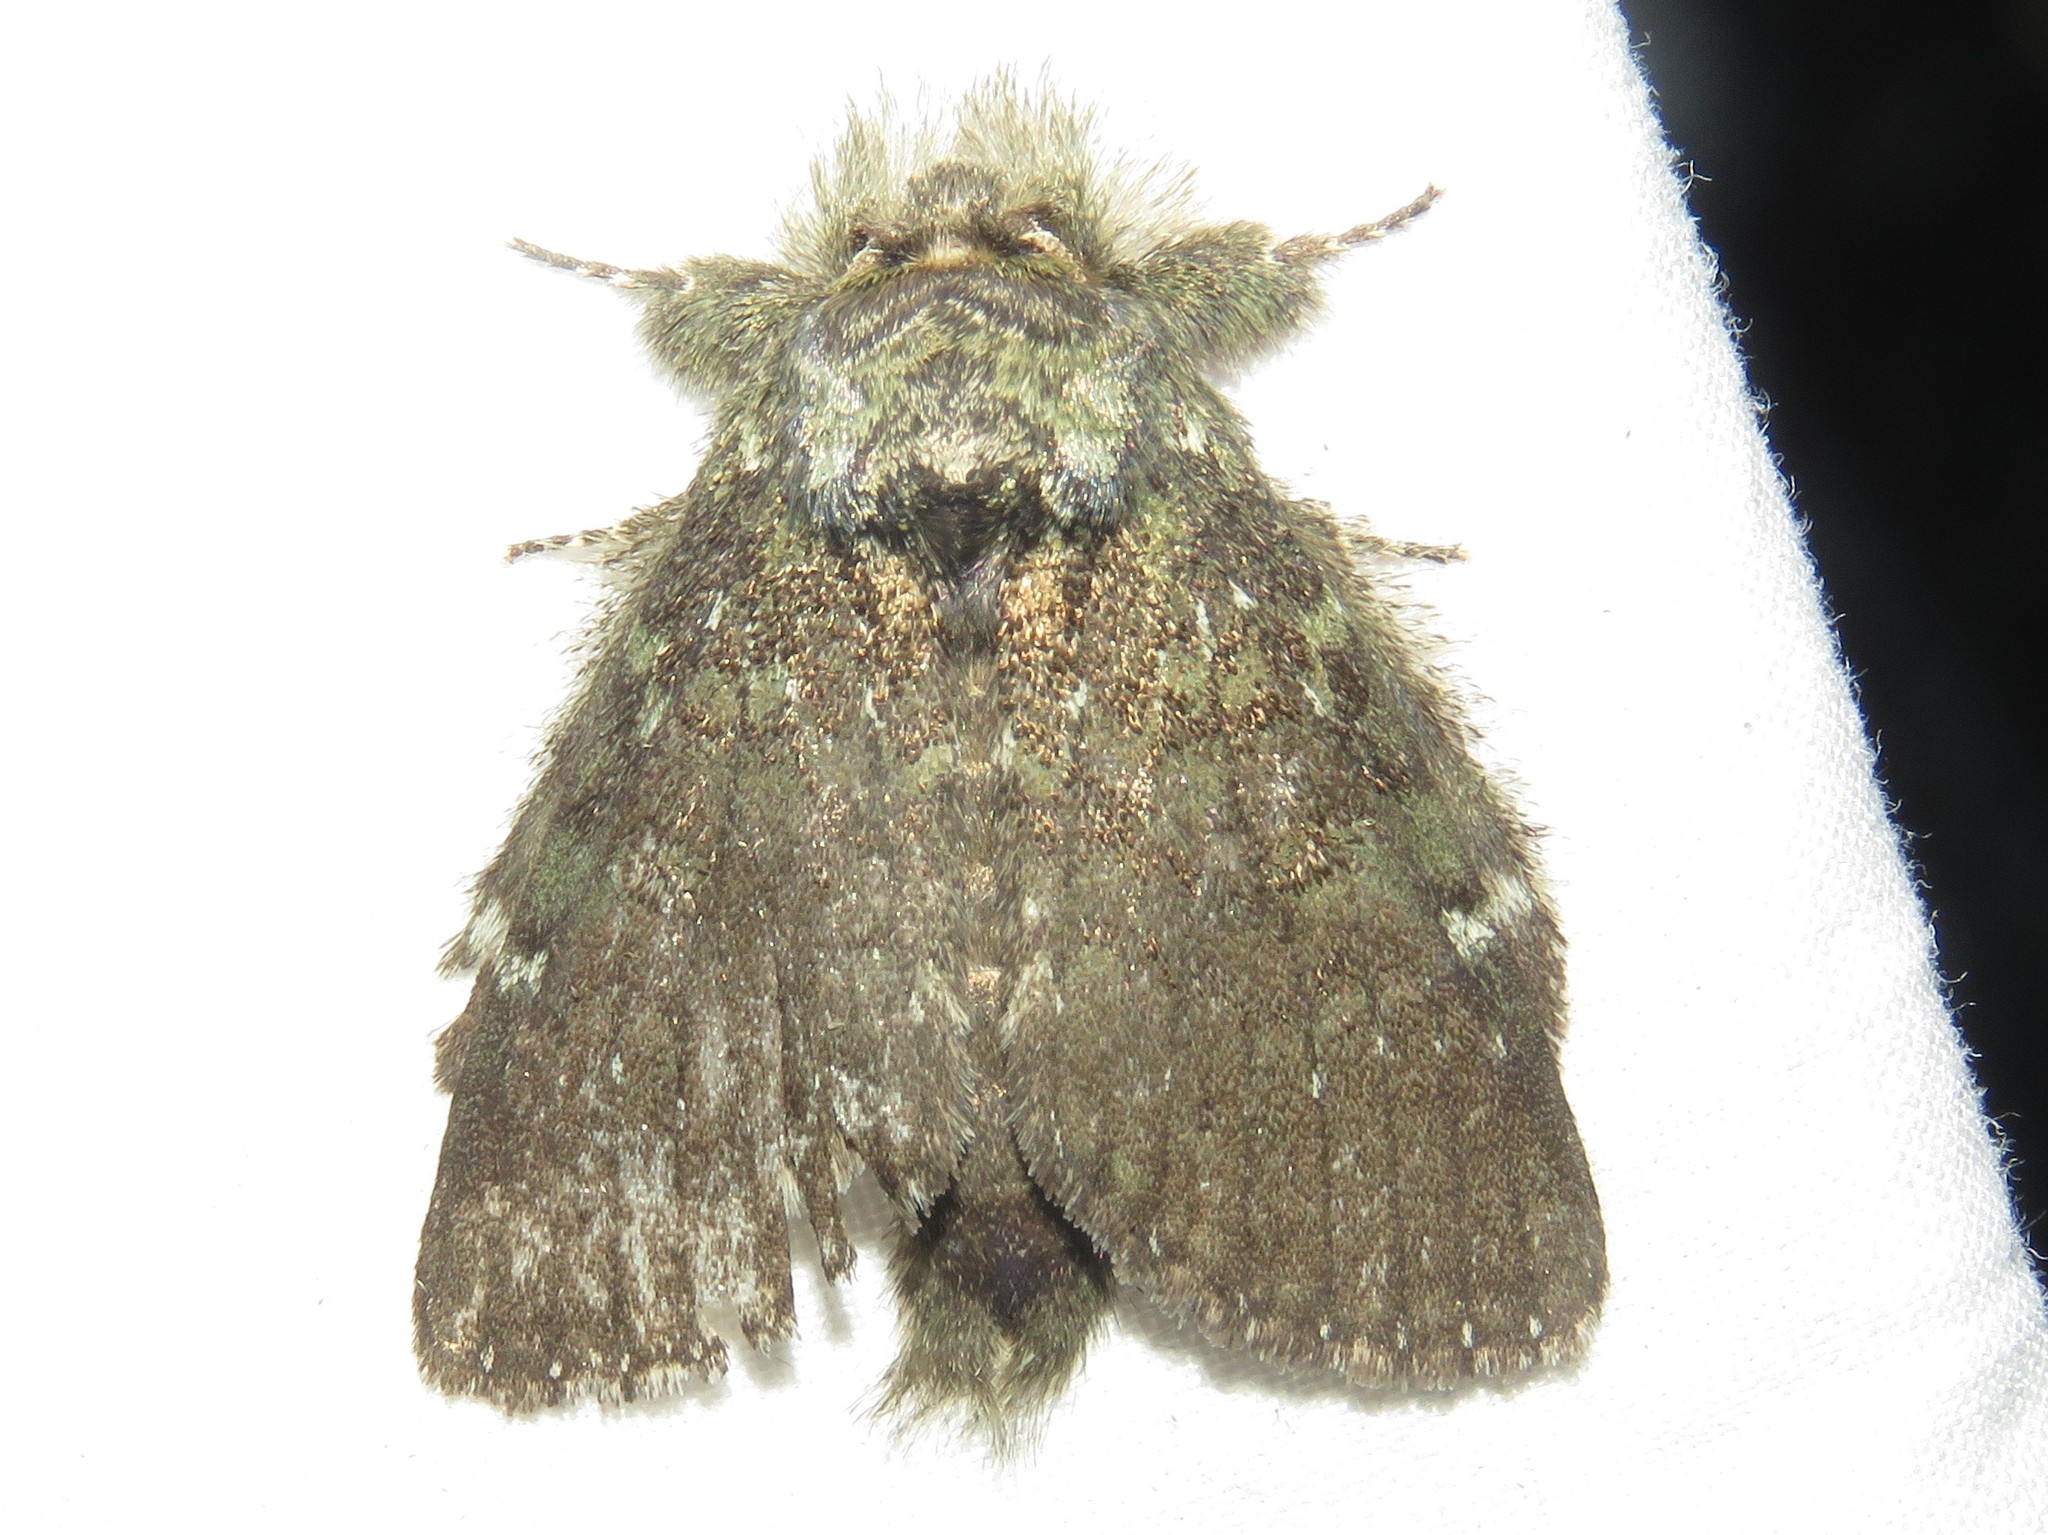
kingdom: Animalia
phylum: Arthropoda
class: Insecta
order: Lepidoptera
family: Notodontidae
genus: Disphragis
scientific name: Disphragis Cecrita guttivitta
